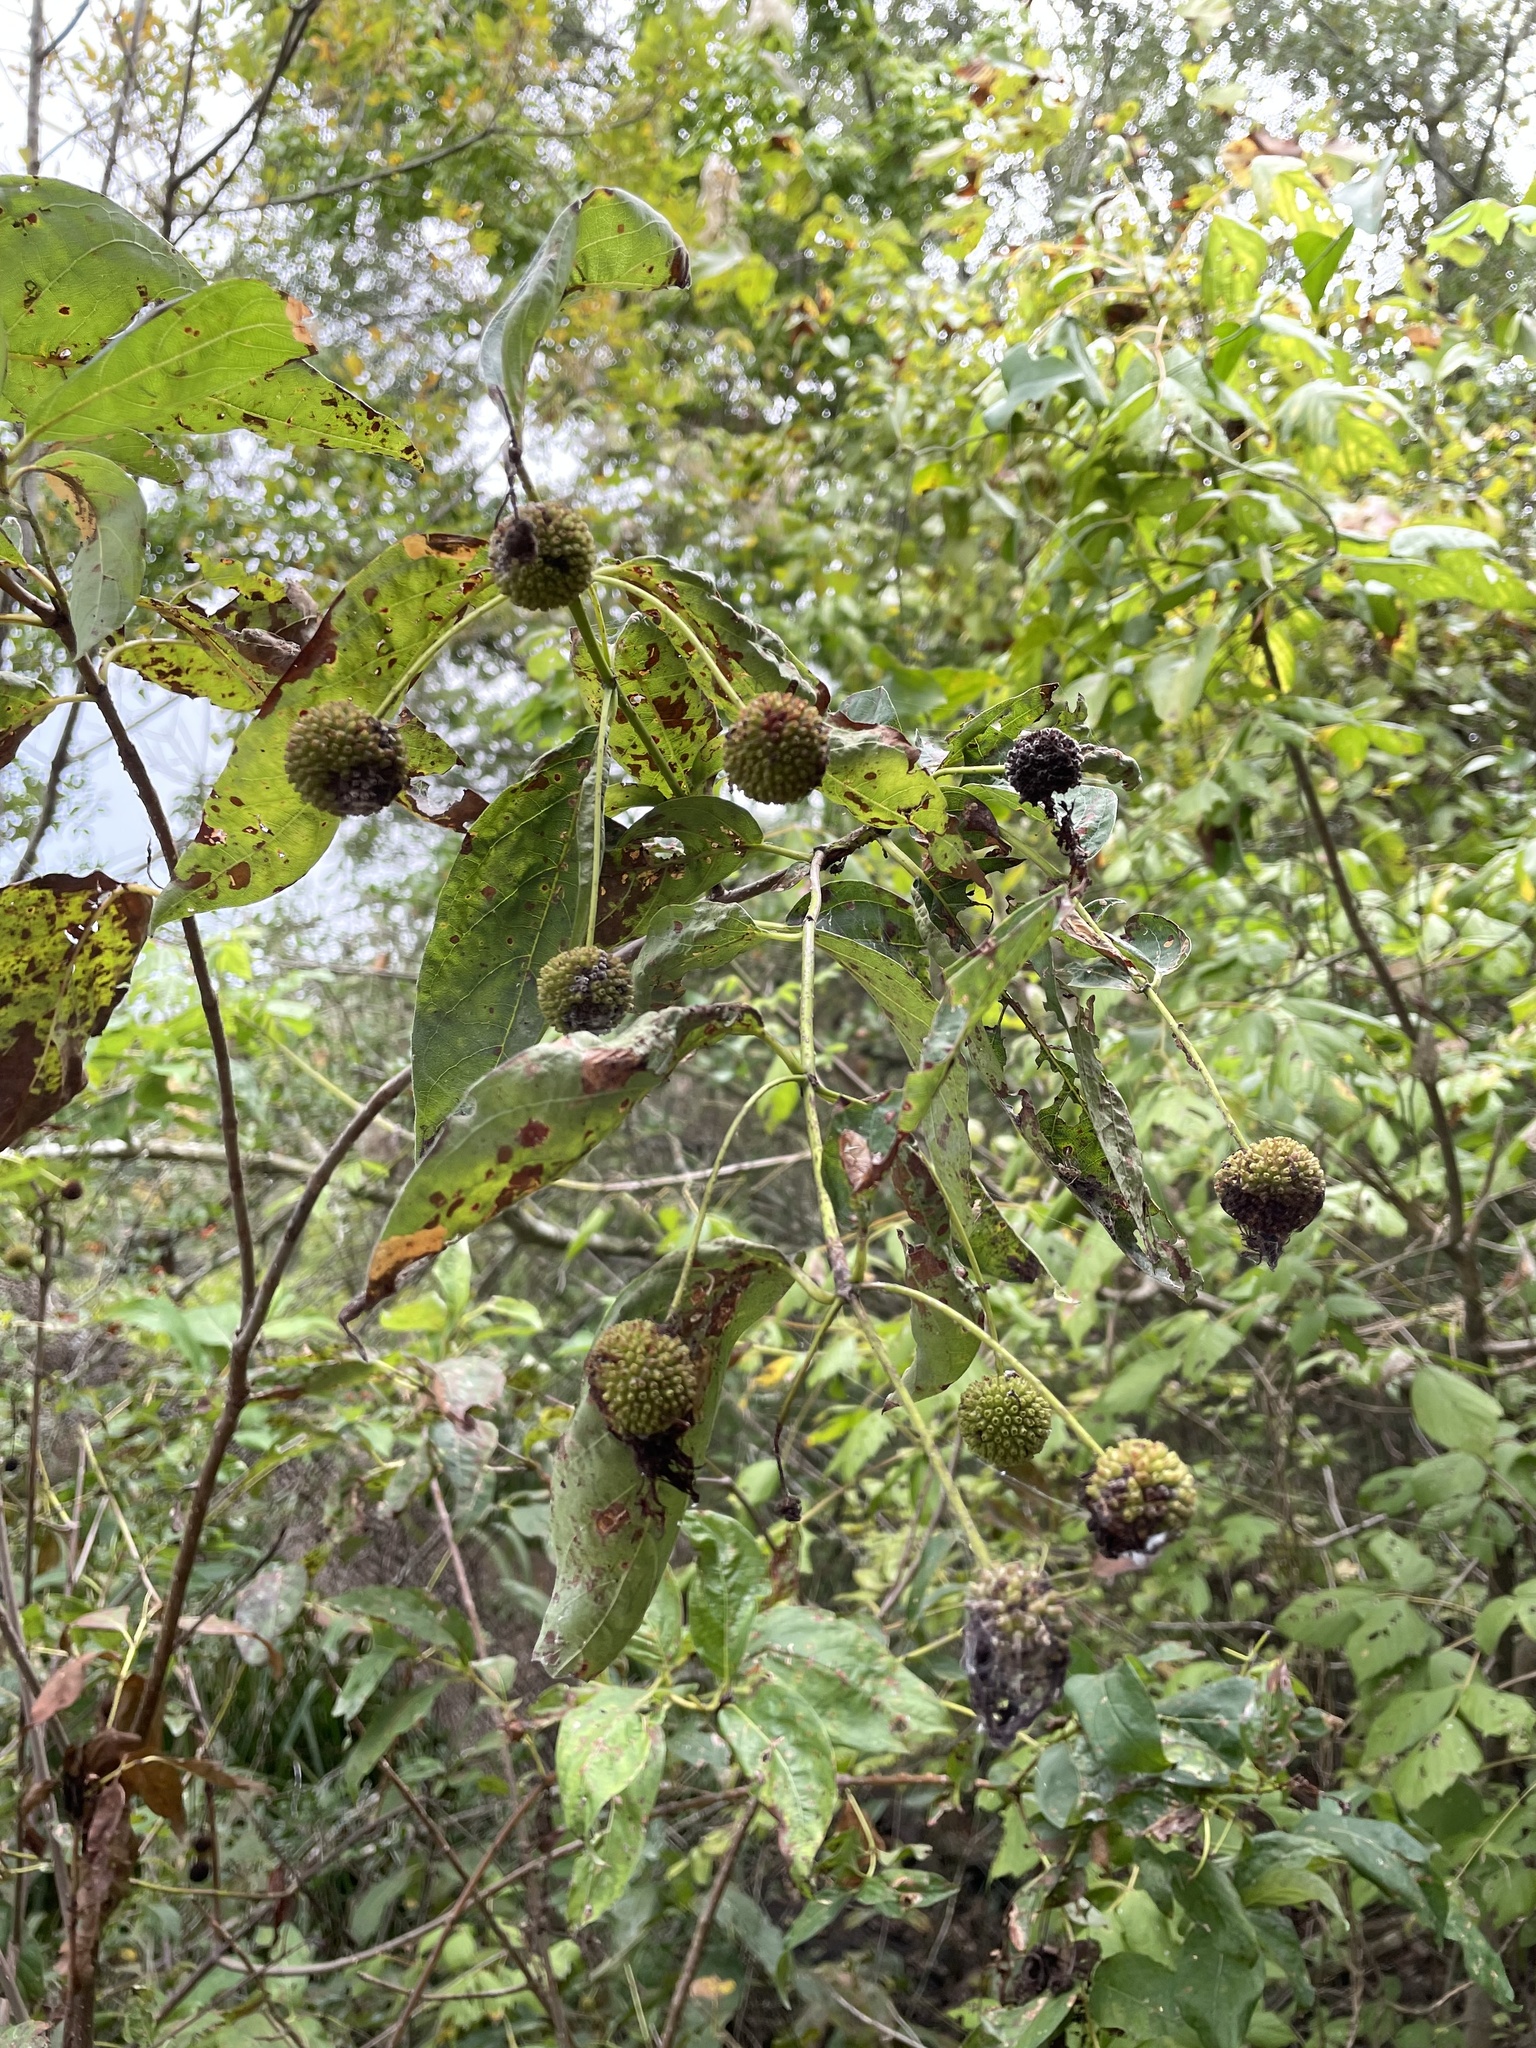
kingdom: Plantae
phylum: Tracheophyta
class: Magnoliopsida
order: Gentianales
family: Rubiaceae
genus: Cephalanthus
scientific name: Cephalanthus occidentalis
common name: Button-willow
